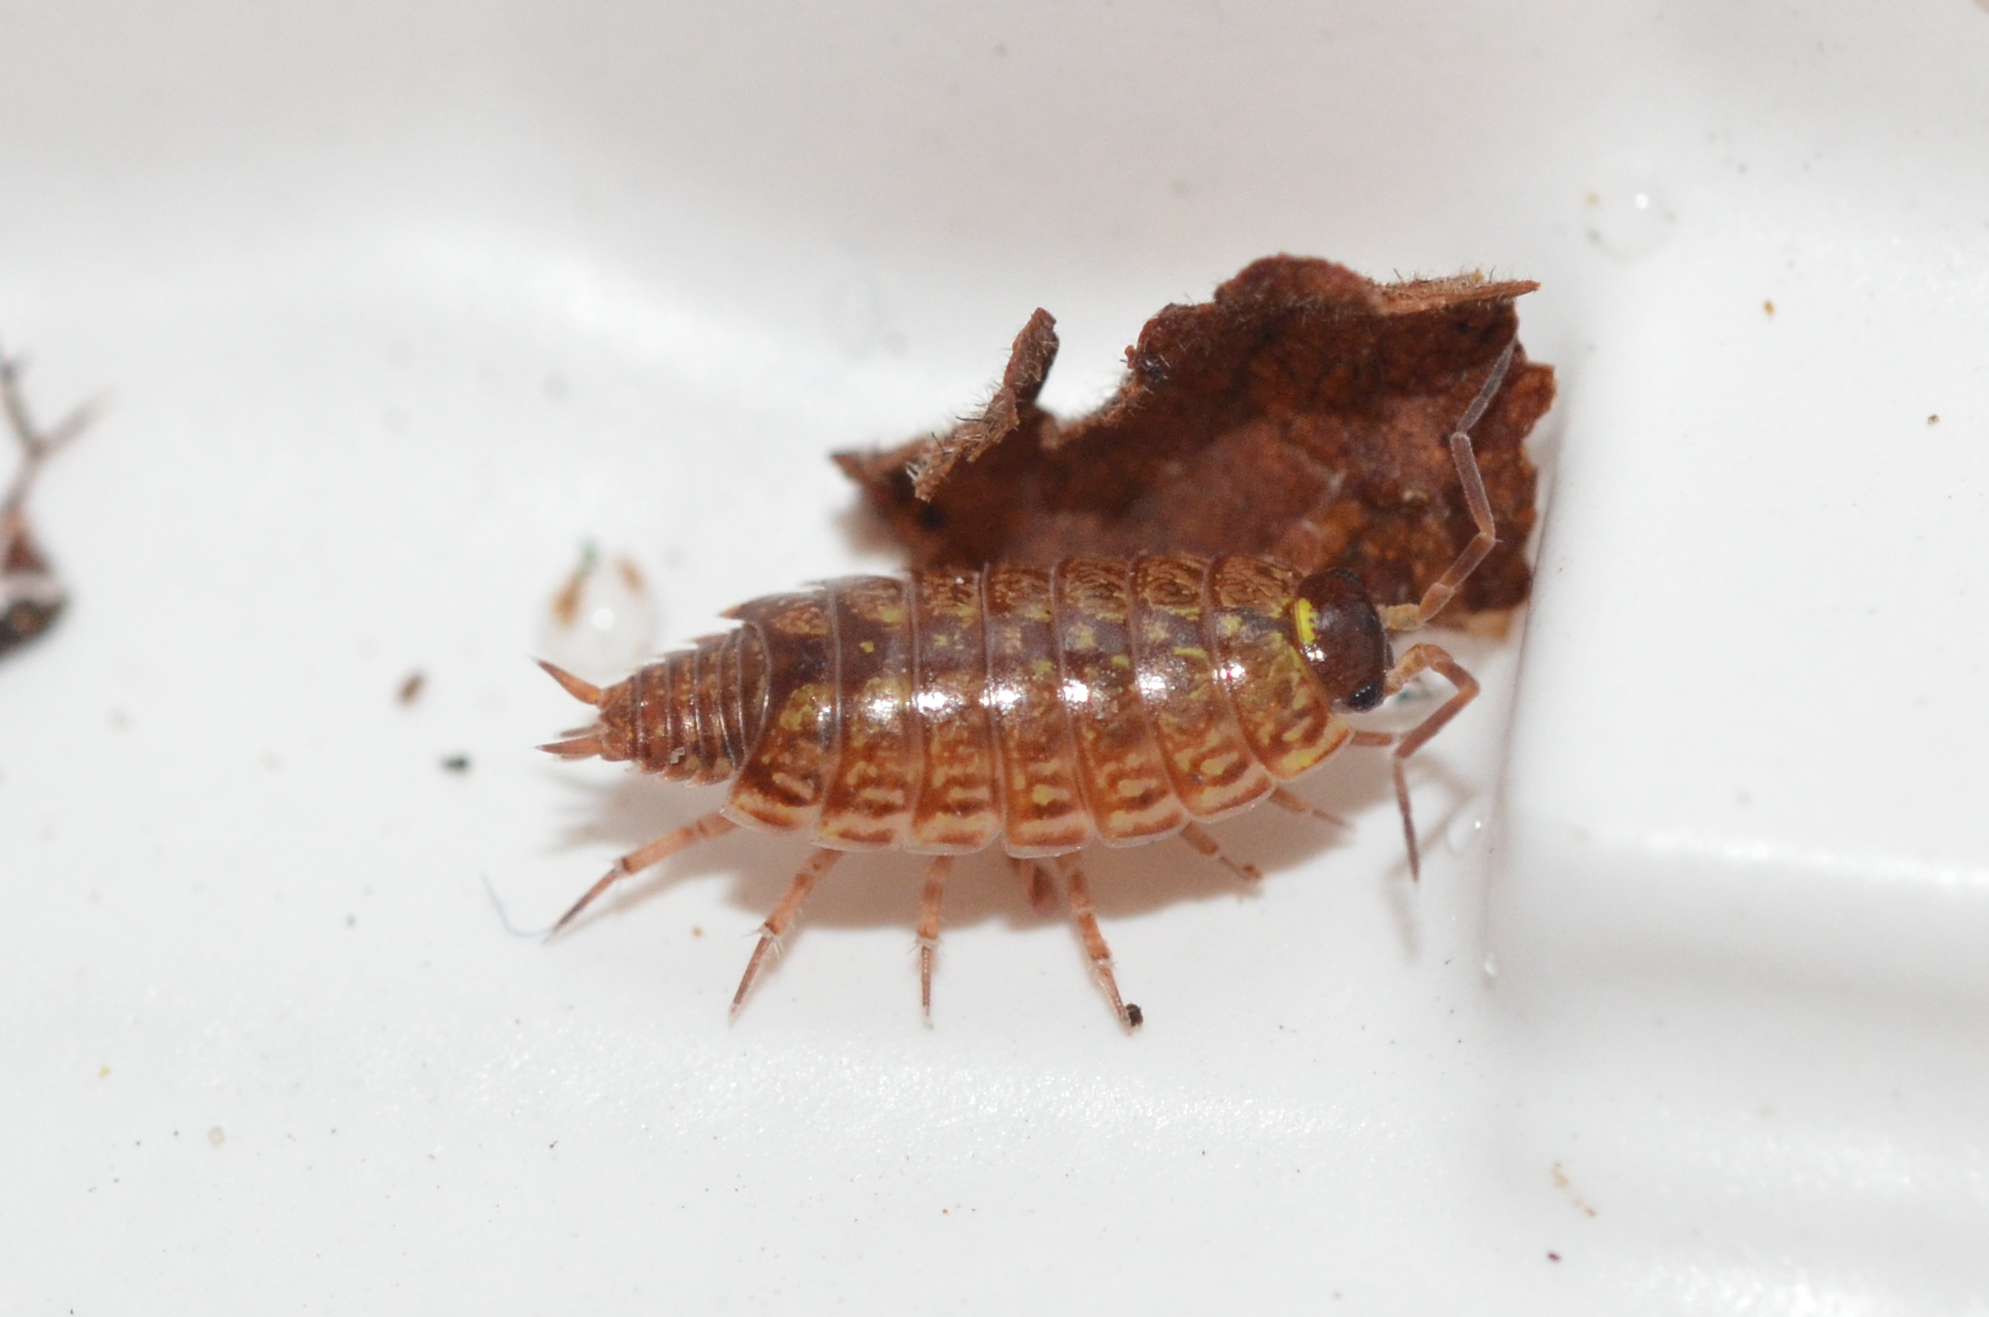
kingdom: Animalia
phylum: Arthropoda
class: Malacostraca
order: Isopoda
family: Philosciidae
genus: Philoscia
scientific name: Philoscia muscorum
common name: Common striped woodlouse
